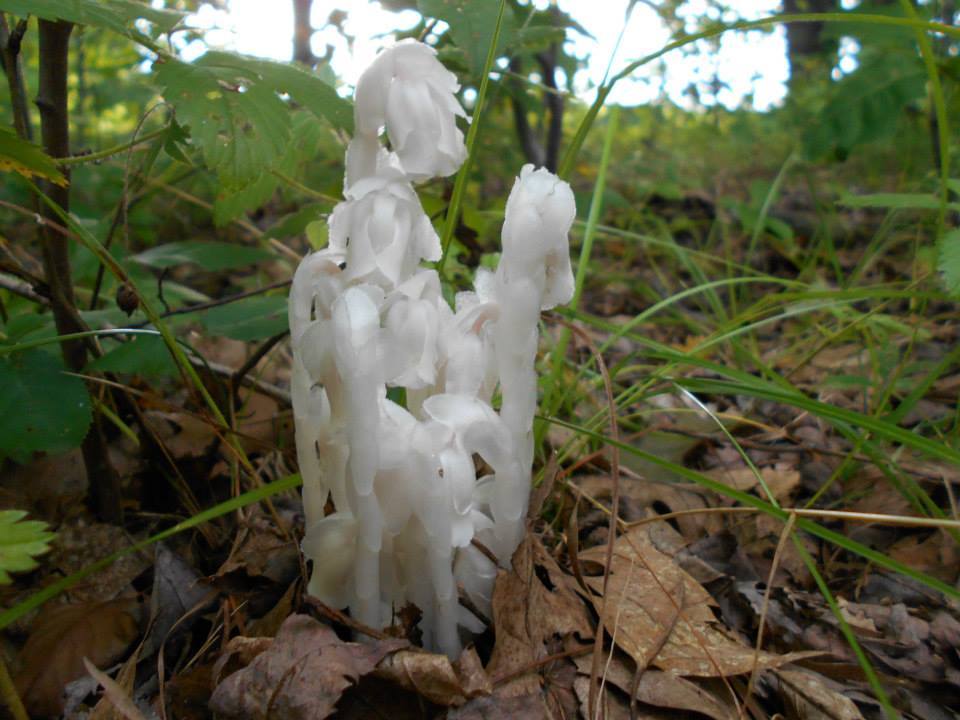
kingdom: Plantae
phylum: Tracheophyta
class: Magnoliopsida
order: Ericales
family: Ericaceae
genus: Monotropa
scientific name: Monotropa uniflora
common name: Convulsion root
